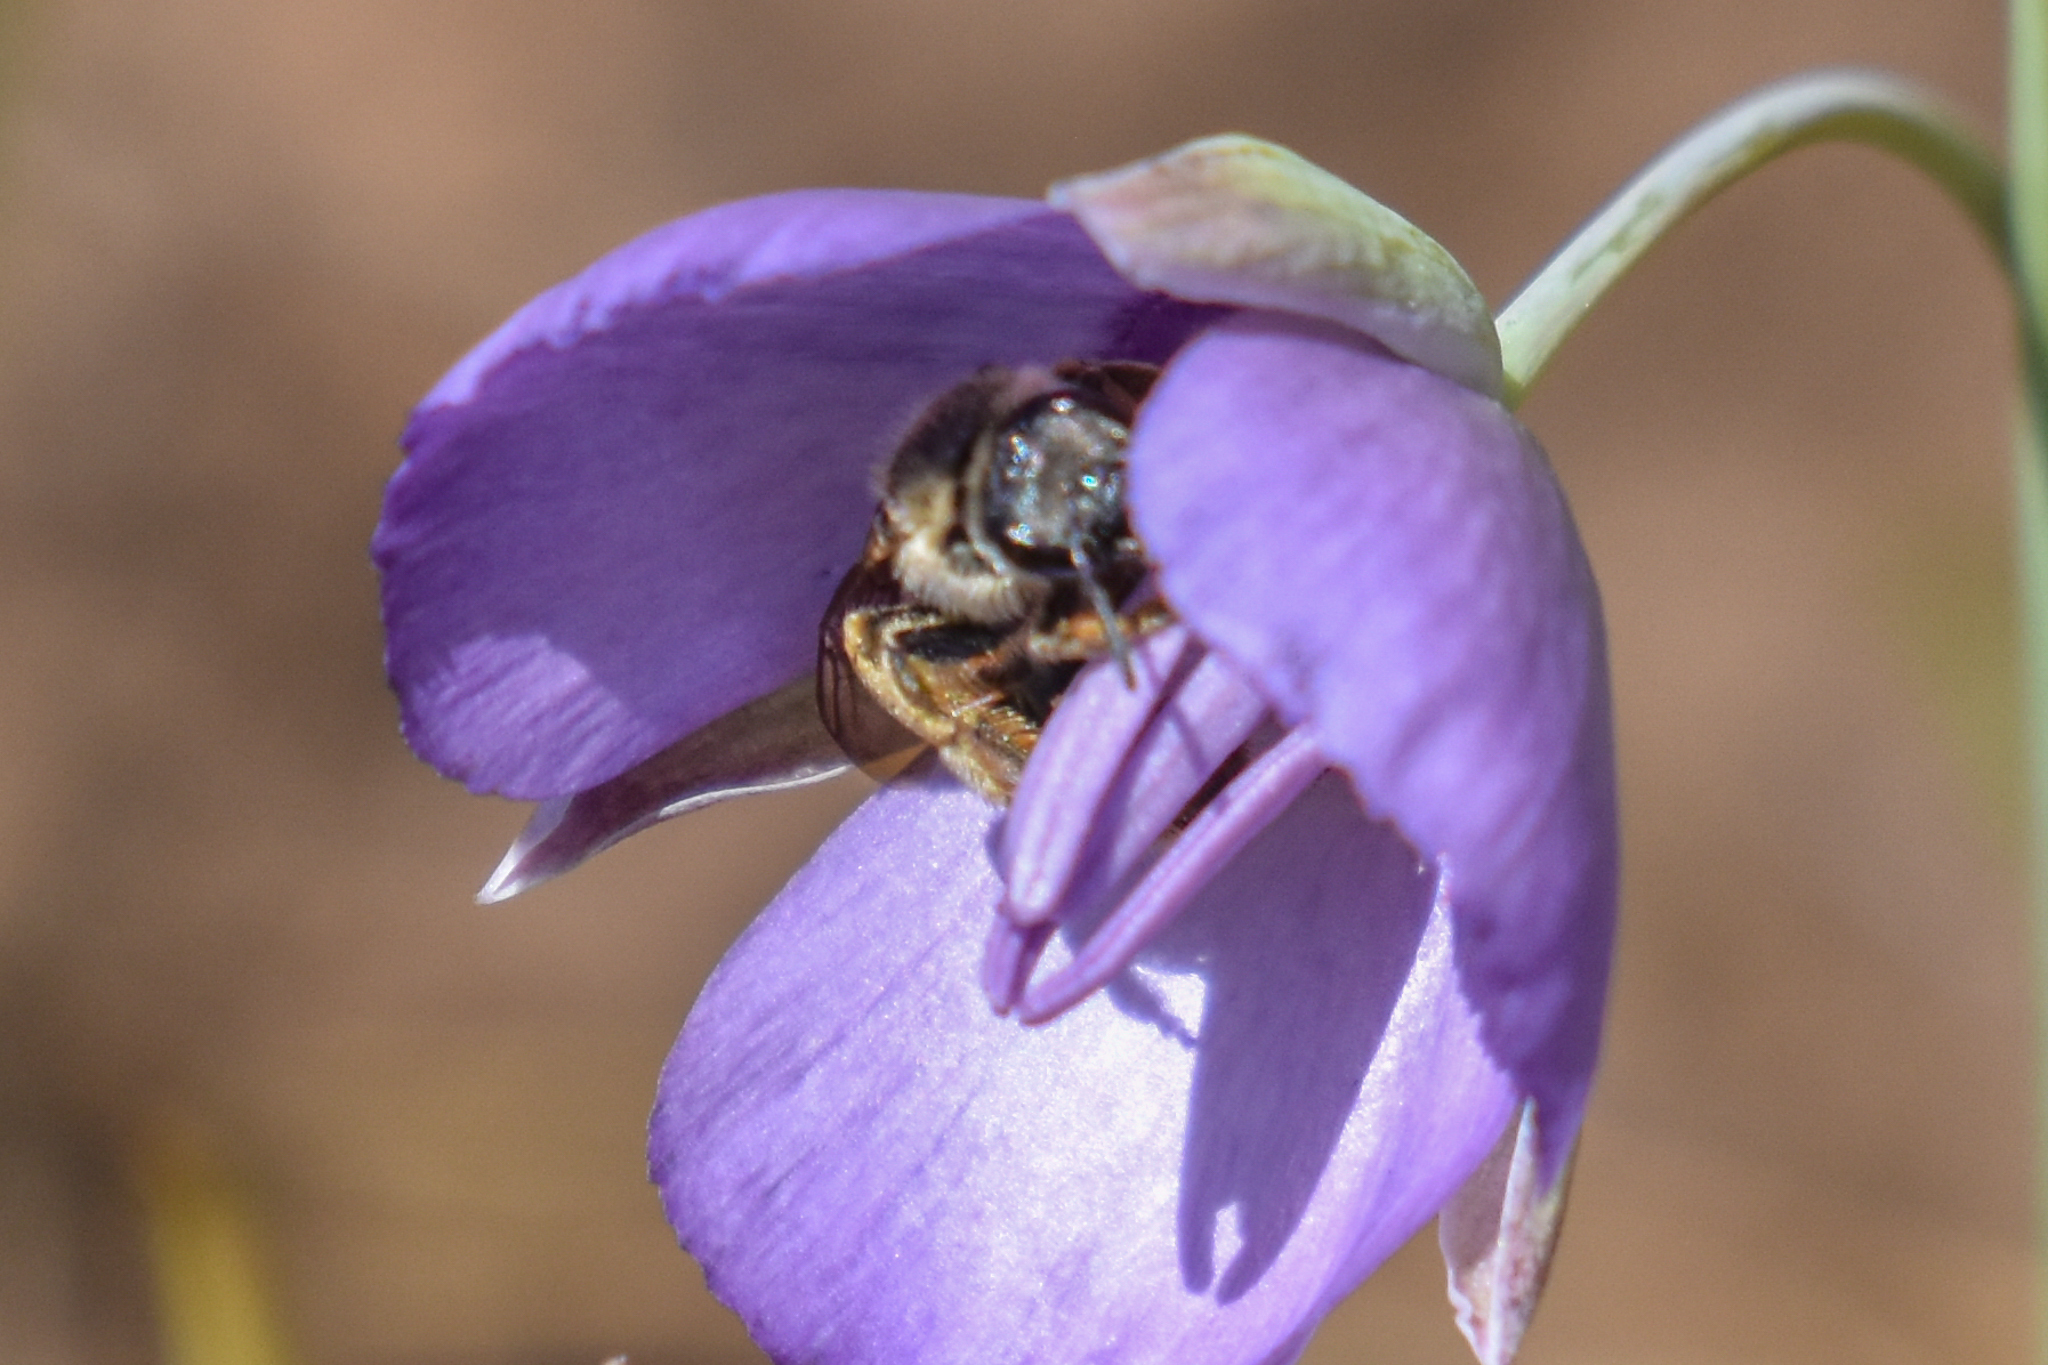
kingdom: Animalia
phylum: Arthropoda
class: Insecta
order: Hymenoptera
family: Halictidae
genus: Halictus
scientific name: Halictus farinosus
